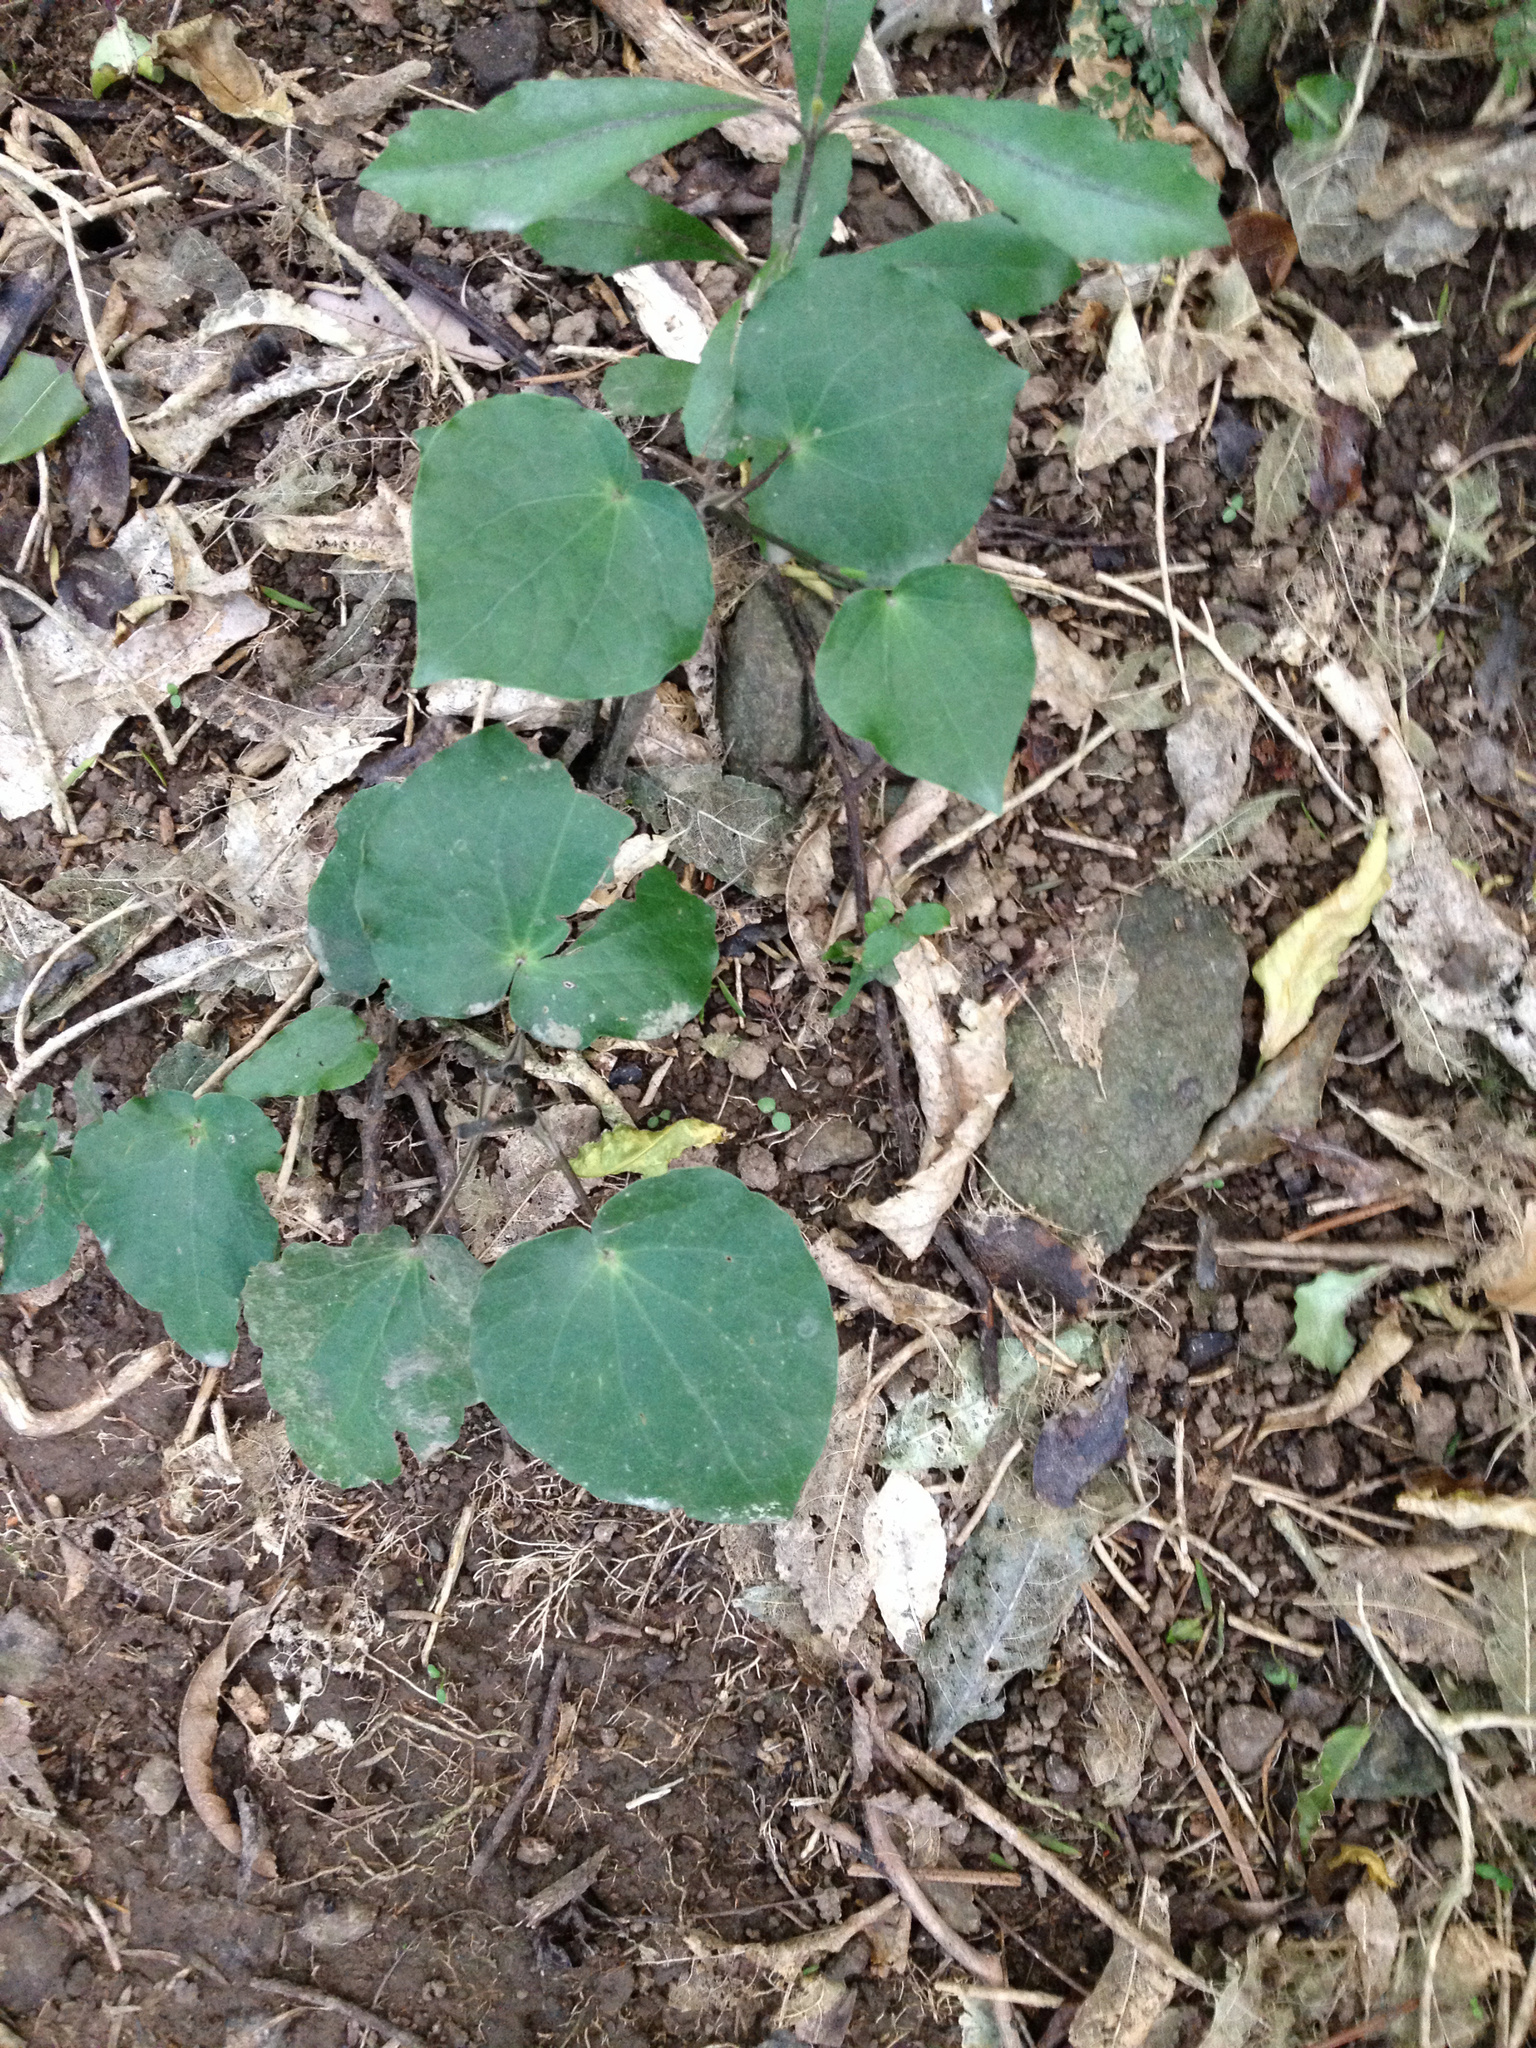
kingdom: Plantae
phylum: Tracheophyta
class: Magnoliopsida
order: Piperales
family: Piperaceae
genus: Macropiper
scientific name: Macropiper excelsum
